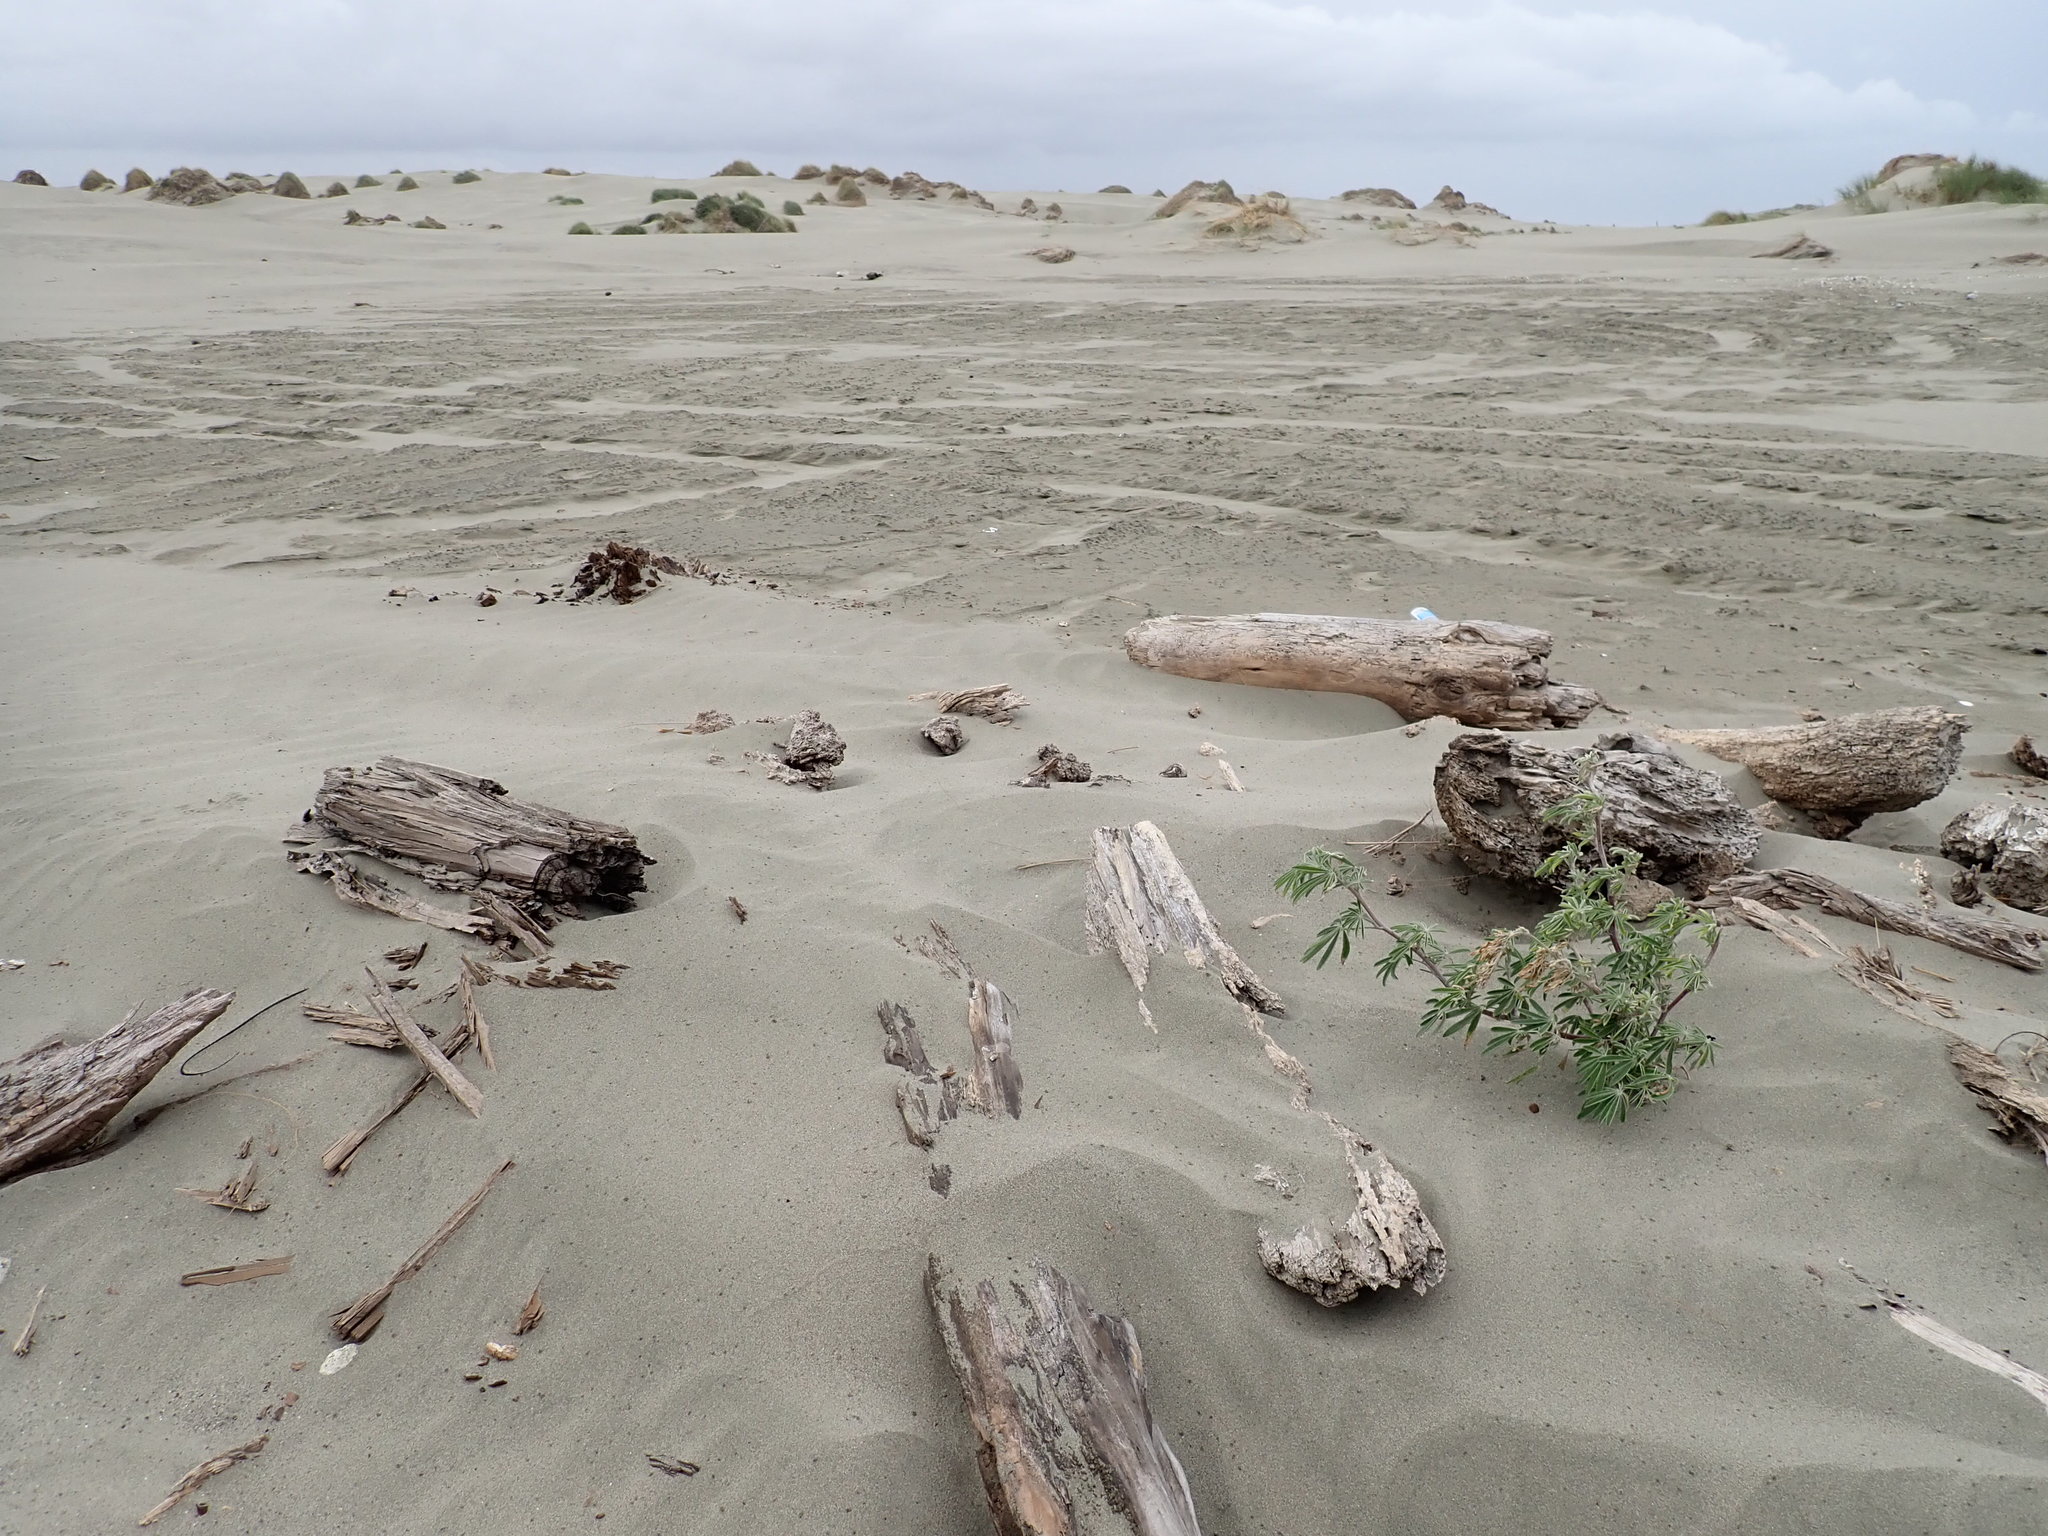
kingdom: Plantae
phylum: Tracheophyta
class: Magnoliopsida
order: Fabales
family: Fabaceae
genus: Lupinus
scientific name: Lupinus arboreus
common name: Yellow bush lupine
